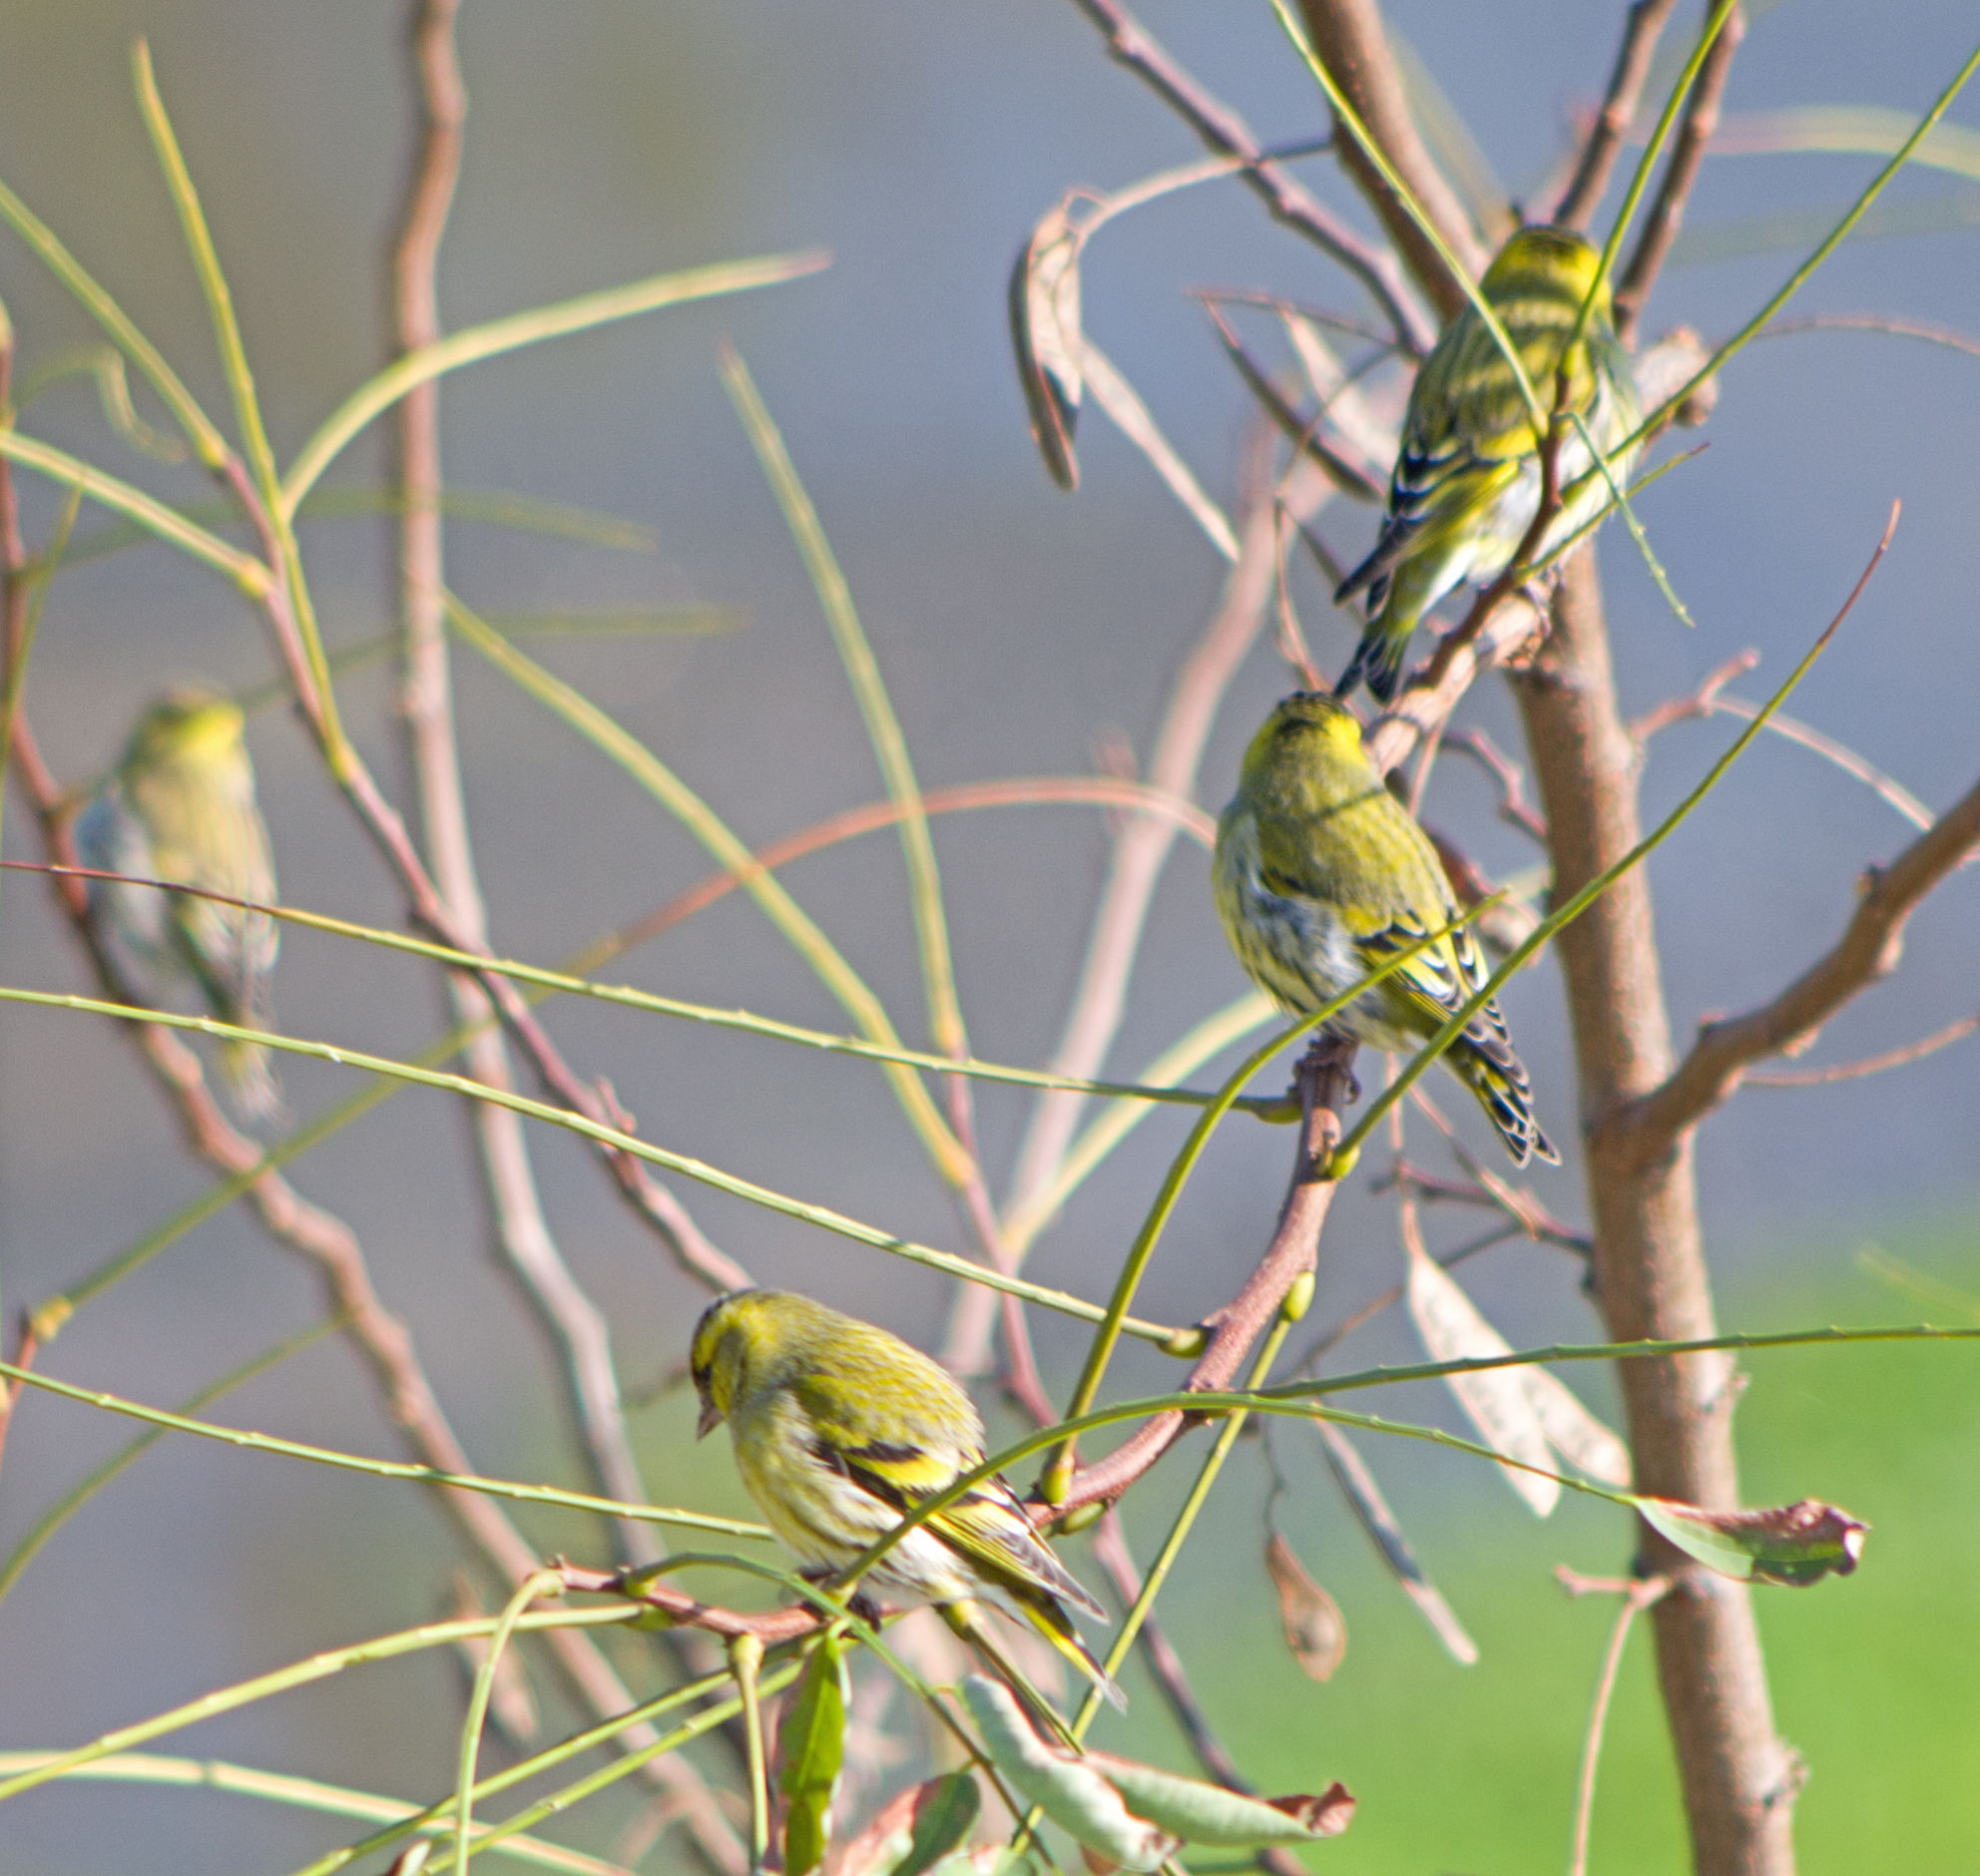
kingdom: Animalia
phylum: Chordata
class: Aves
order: Passeriformes
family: Fringillidae
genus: Spinus
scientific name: Spinus spinus
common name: Eurasian siskin
